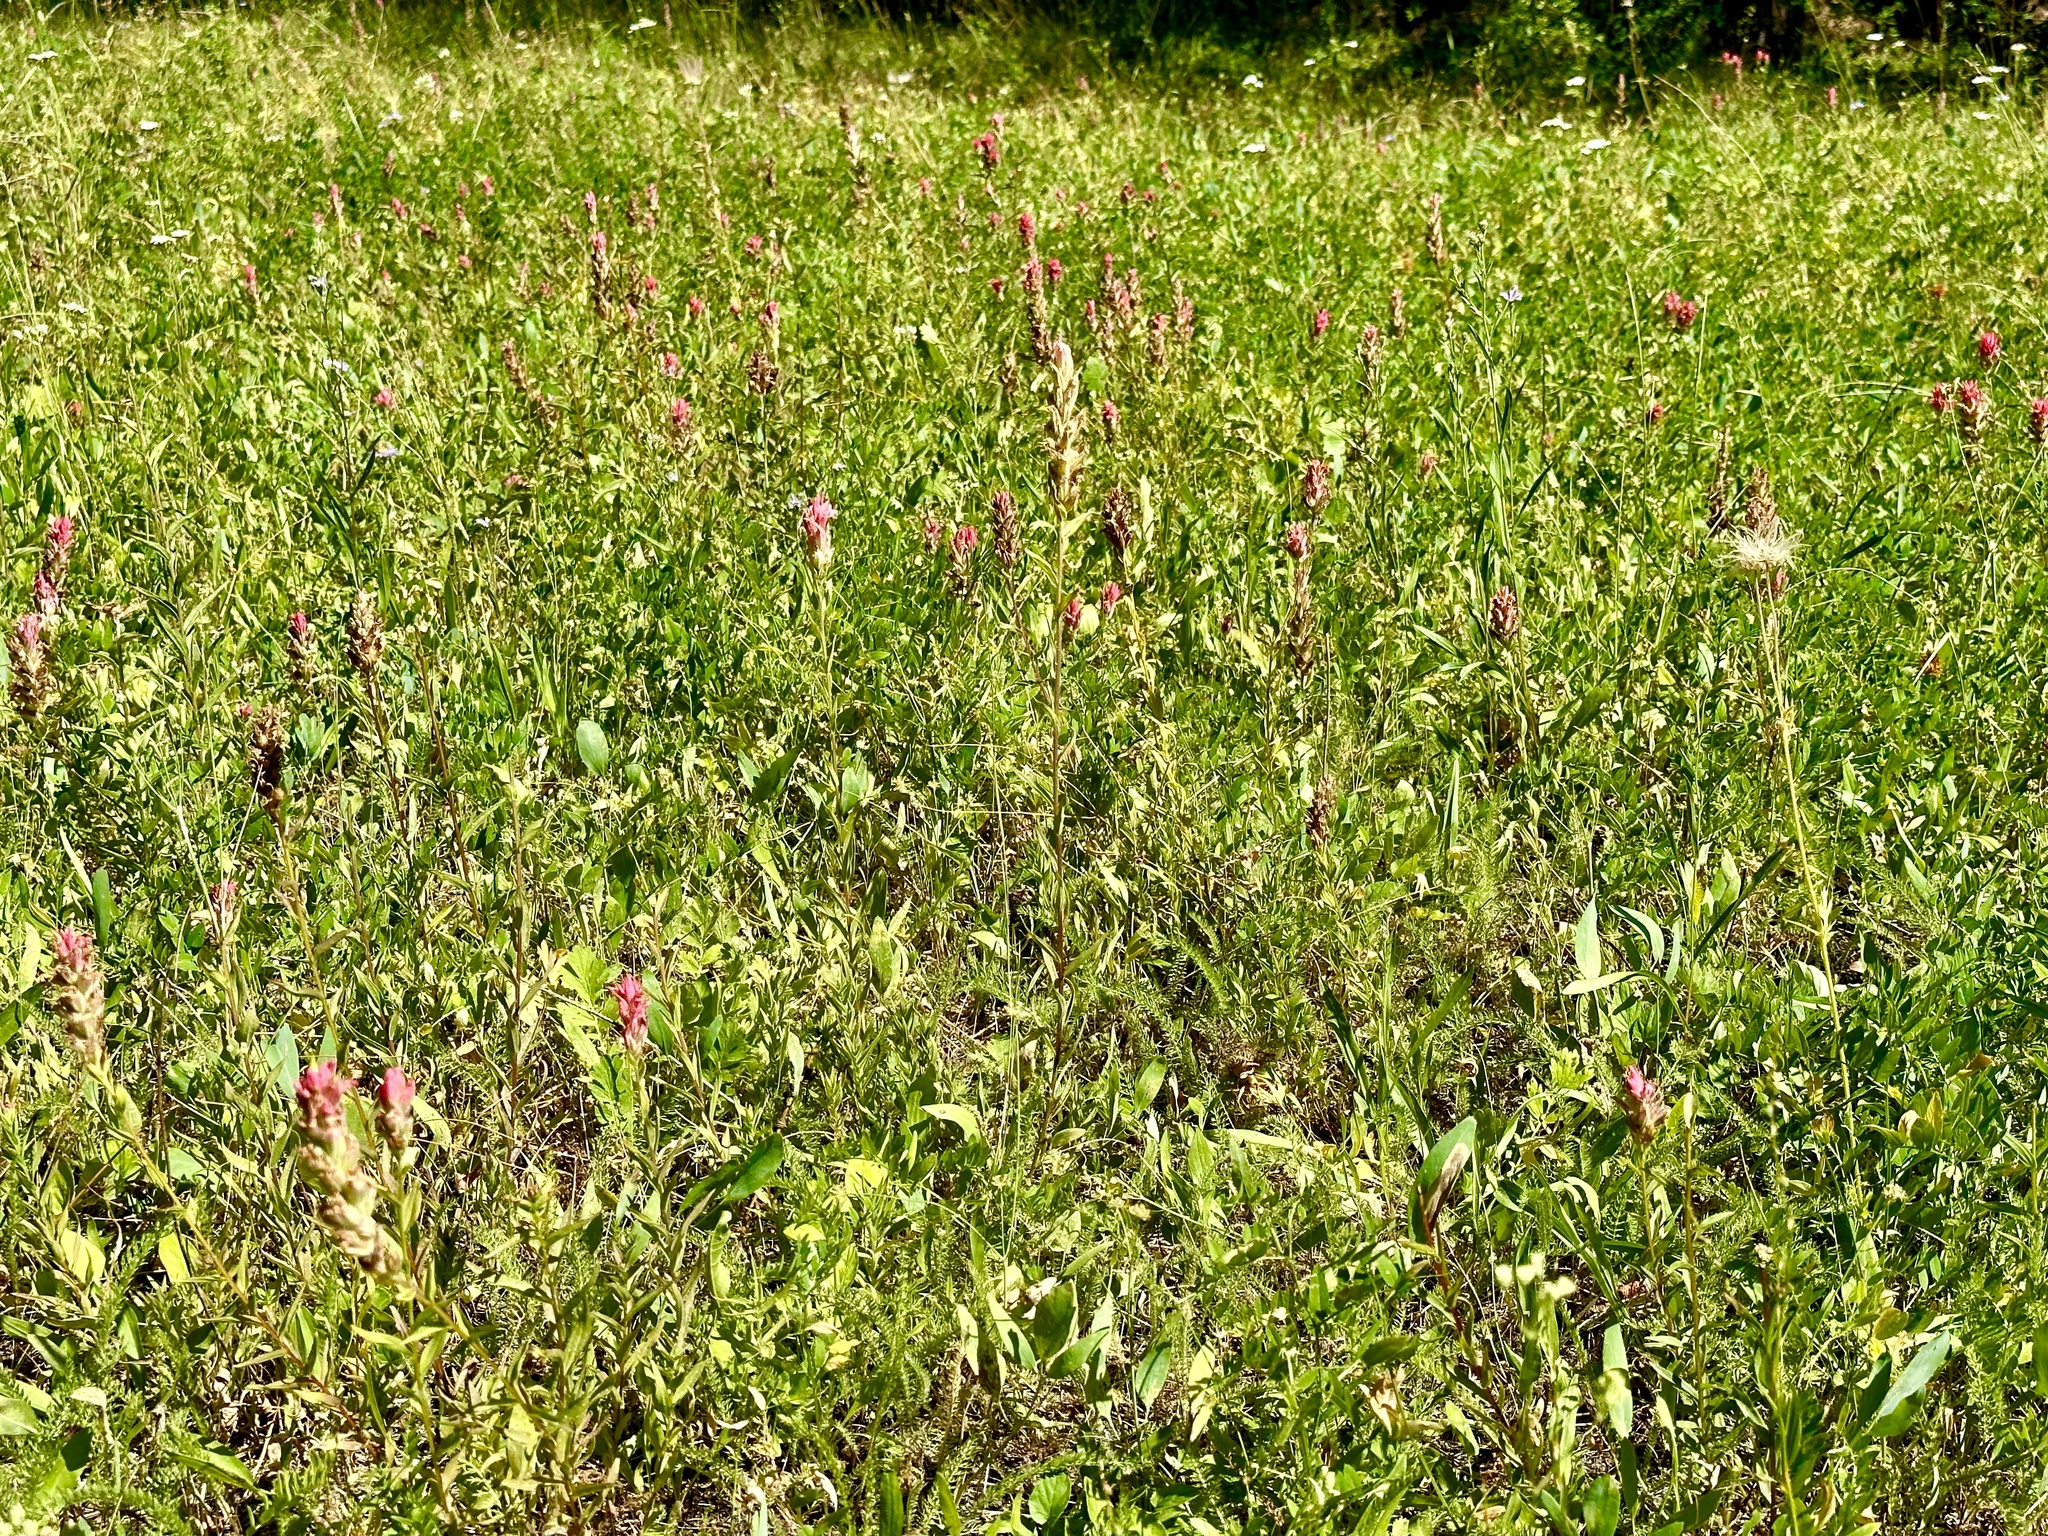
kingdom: Plantae
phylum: Tracheophyta
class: Magnoliopsida
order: Lamiales
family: Orobanchaceae
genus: Castilleja
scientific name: Castilleja miniata
